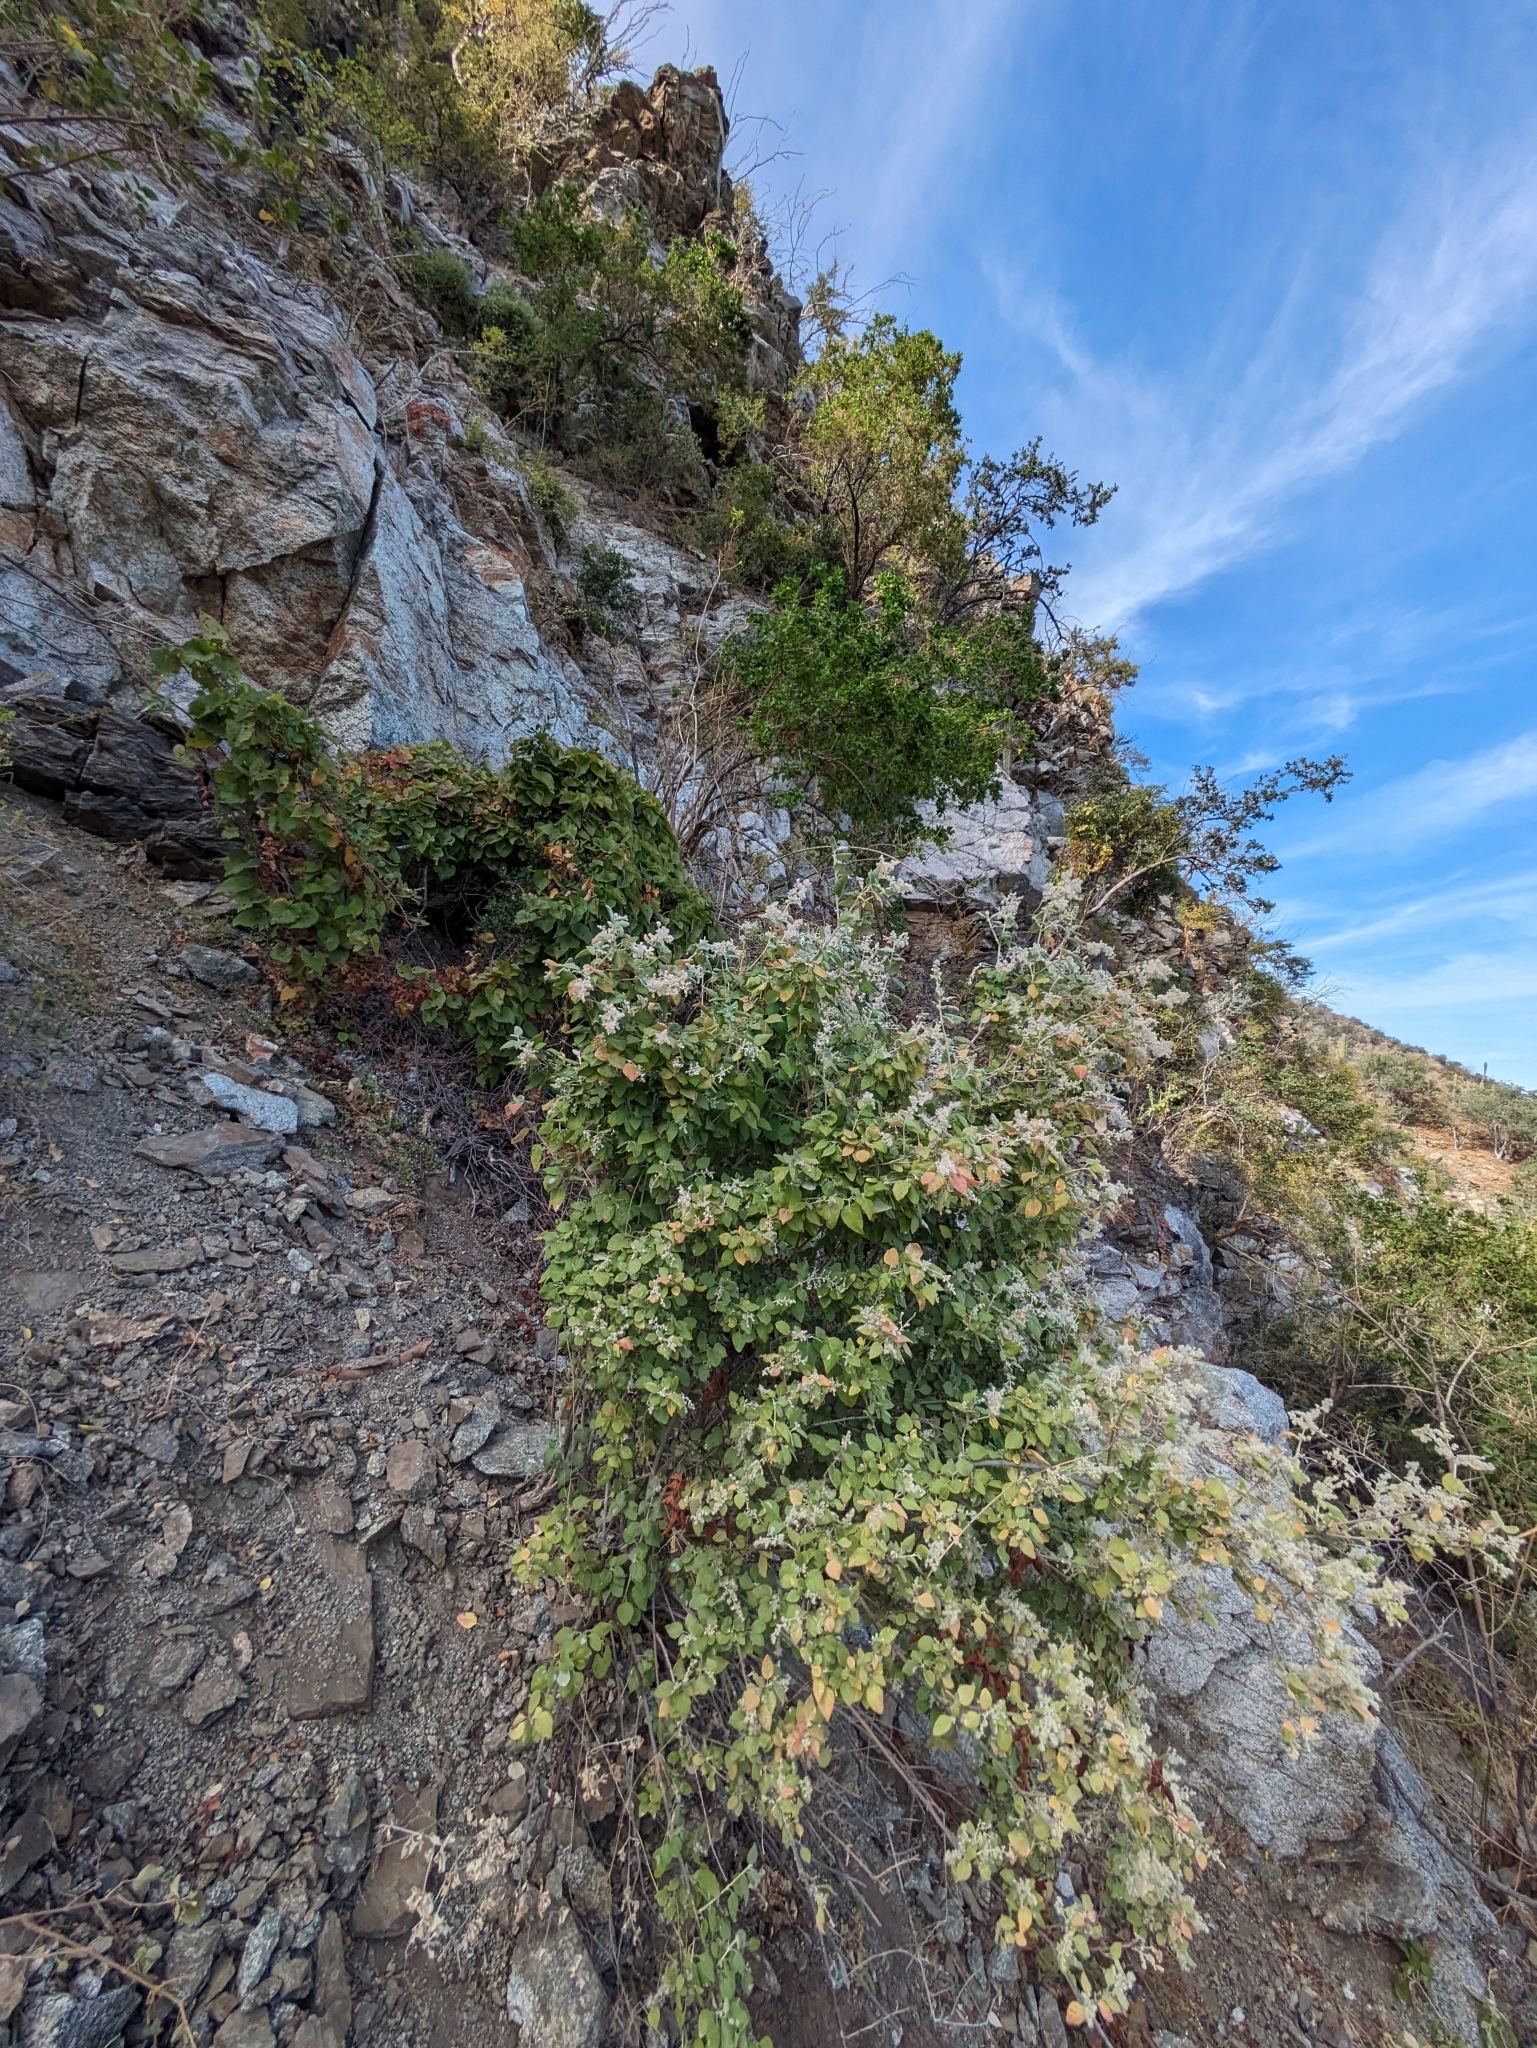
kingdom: Plantae
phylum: Tracheophyta
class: Magnoliopsida
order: Caryophyllales
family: Amaranthaceae
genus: Iresine
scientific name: Iresine alternifolia
